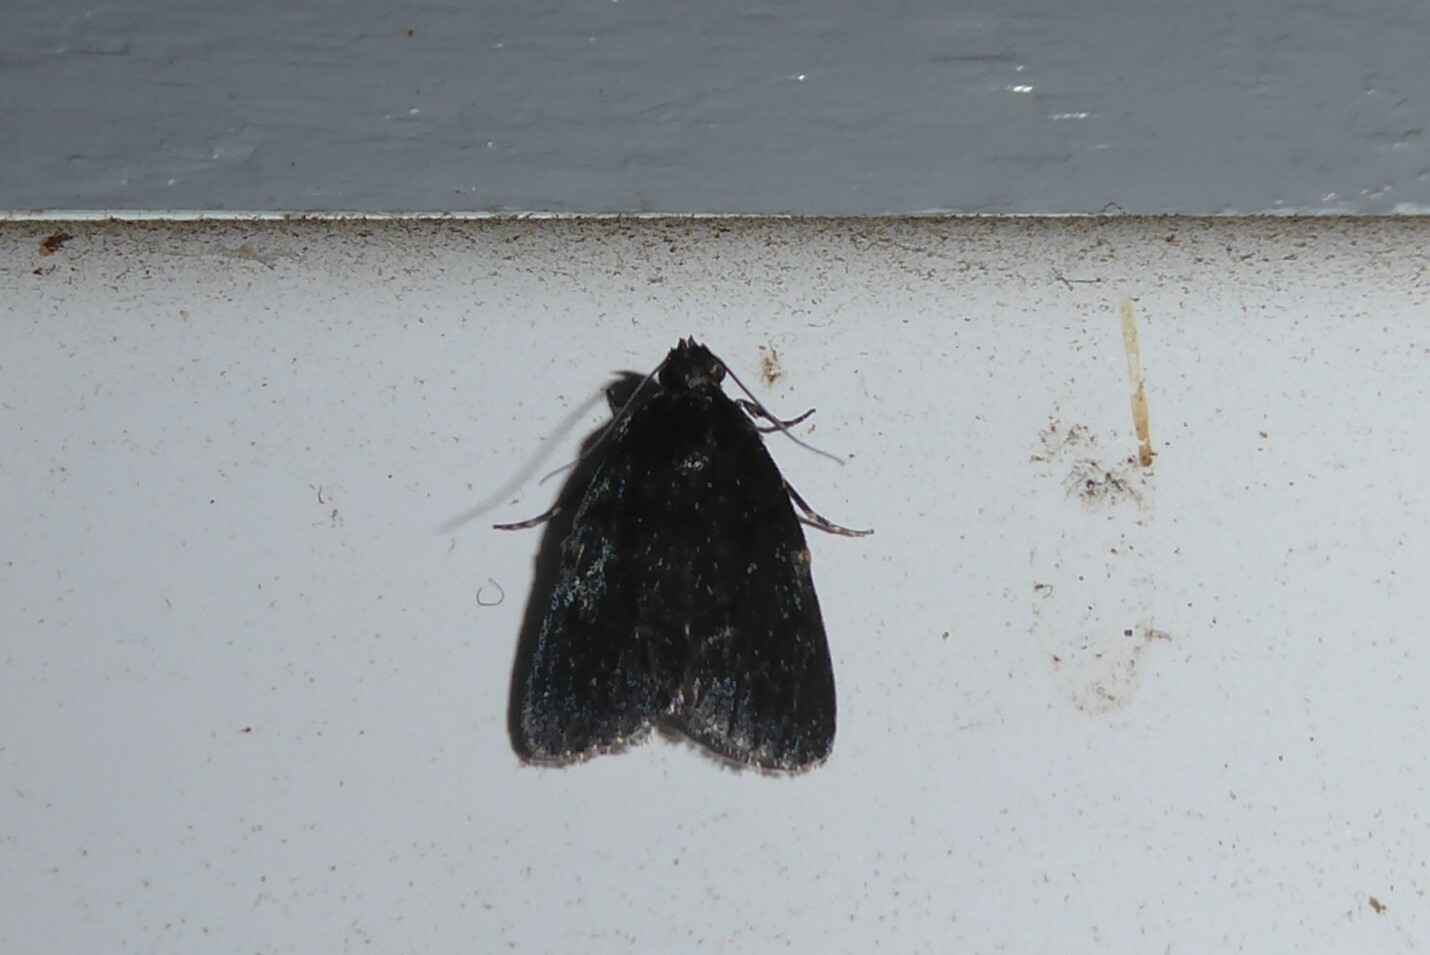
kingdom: Animalia
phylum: Arthropoda
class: Insecta
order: Lepidoptera
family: Pyralidae
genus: Stericta
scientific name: Stericta carbonalis
